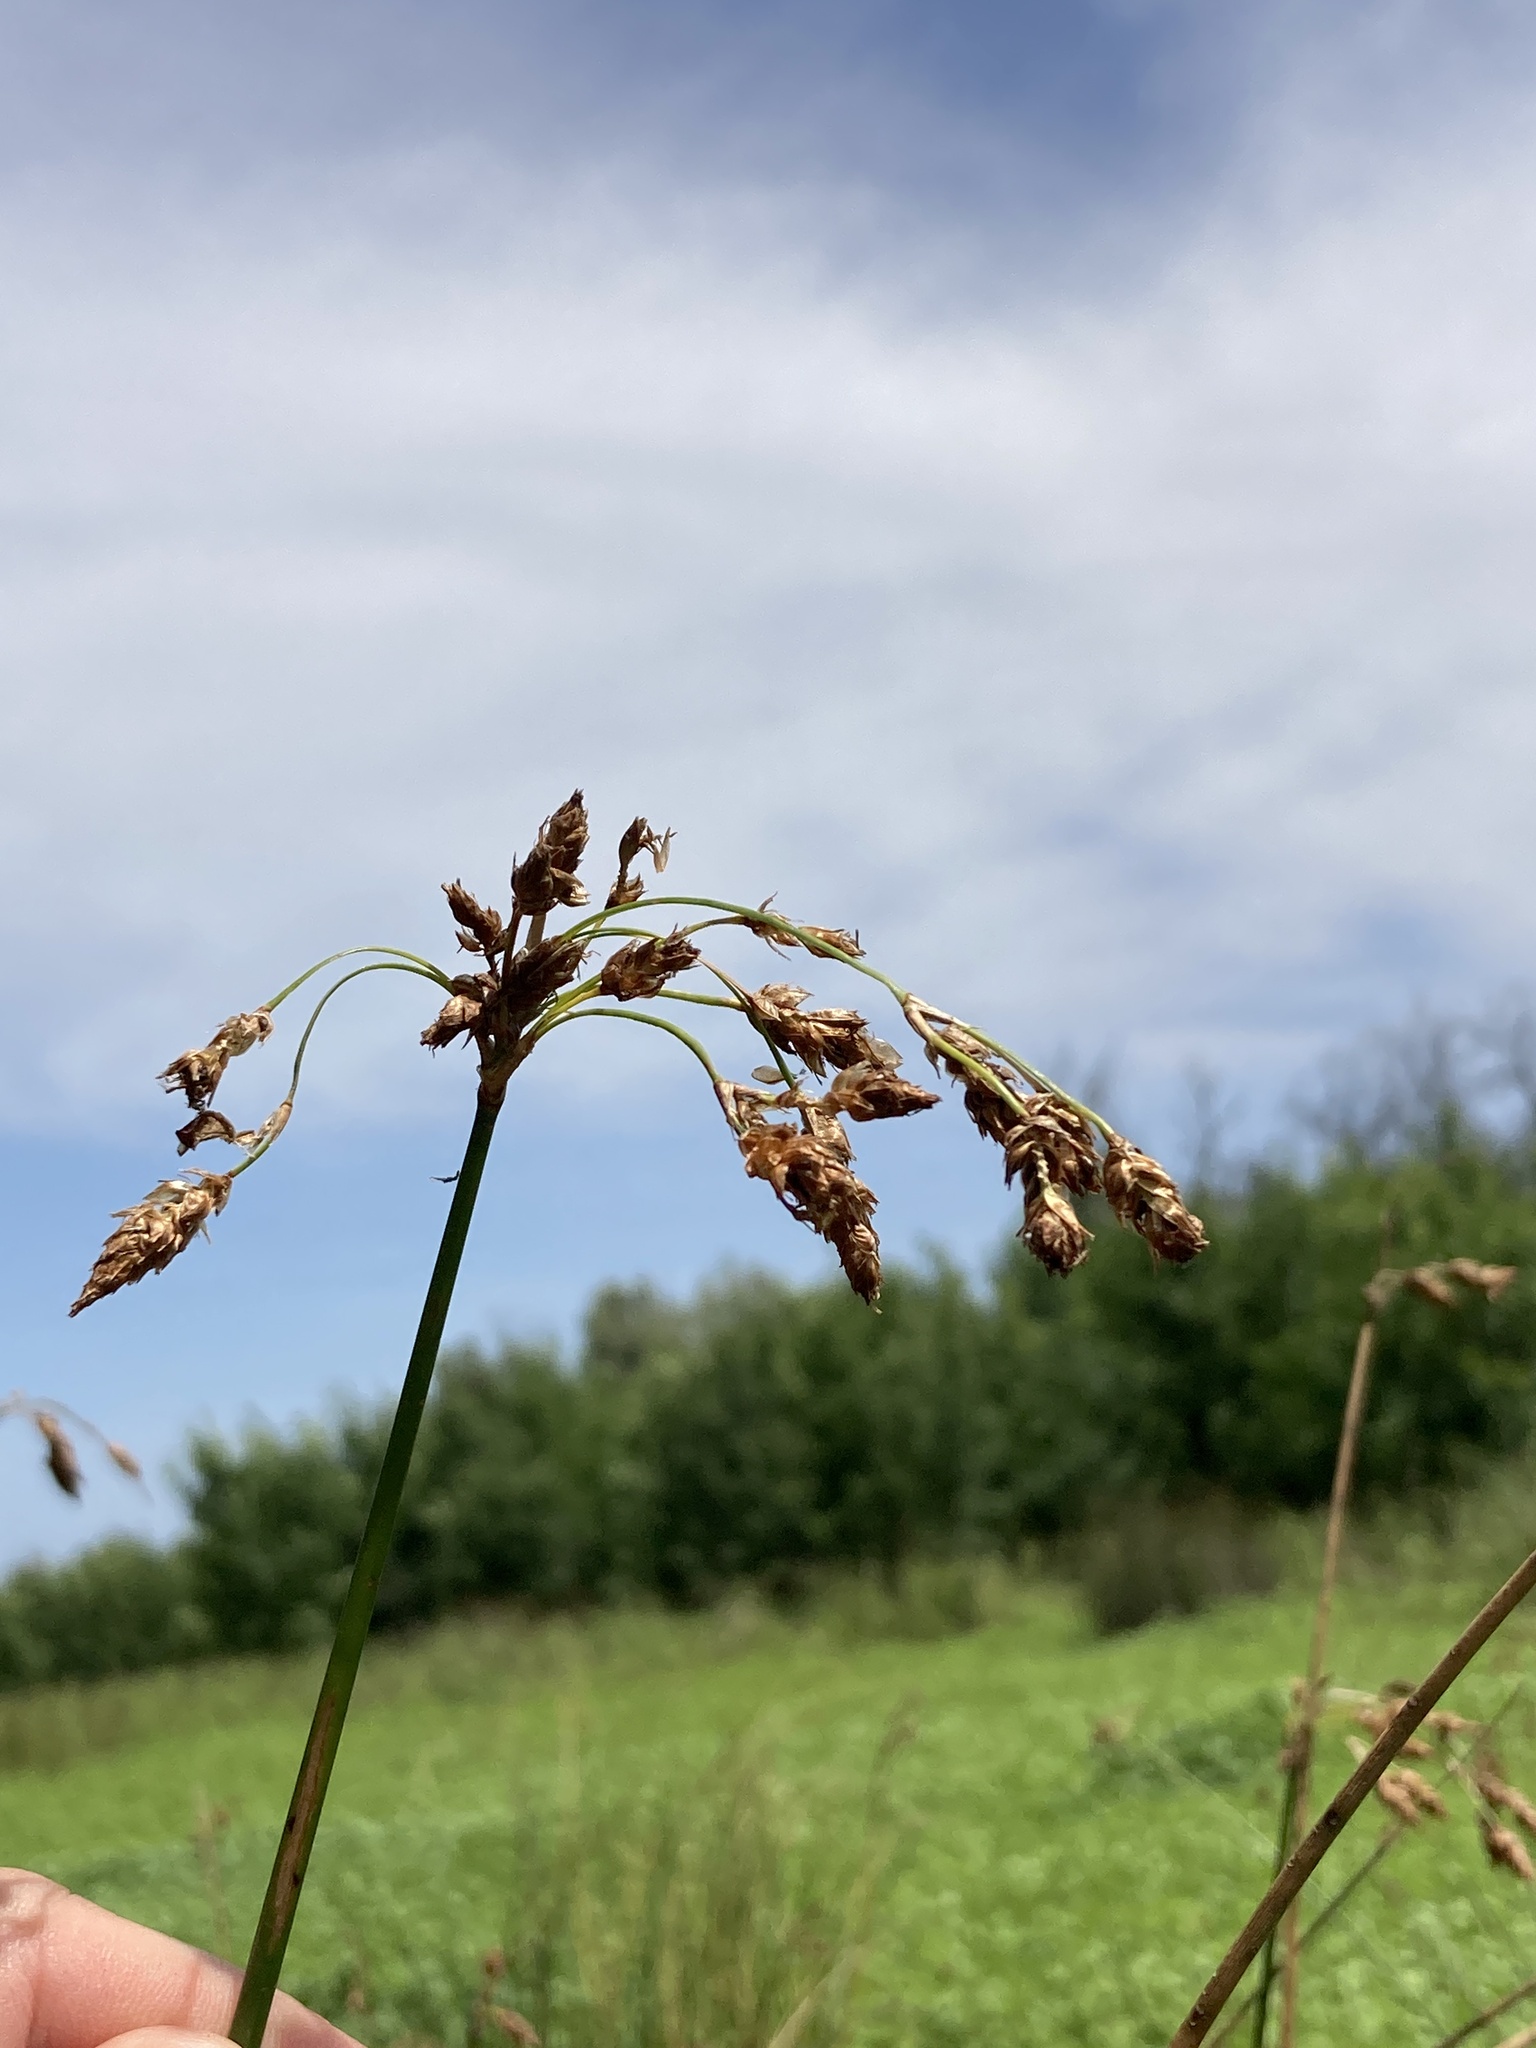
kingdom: Plantae
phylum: Tracheophyta
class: Liliopsida
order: Poales
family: Cyperaceae
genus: Schoenoplectus
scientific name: Schoenoplectus lacustris
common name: Common club-rush
